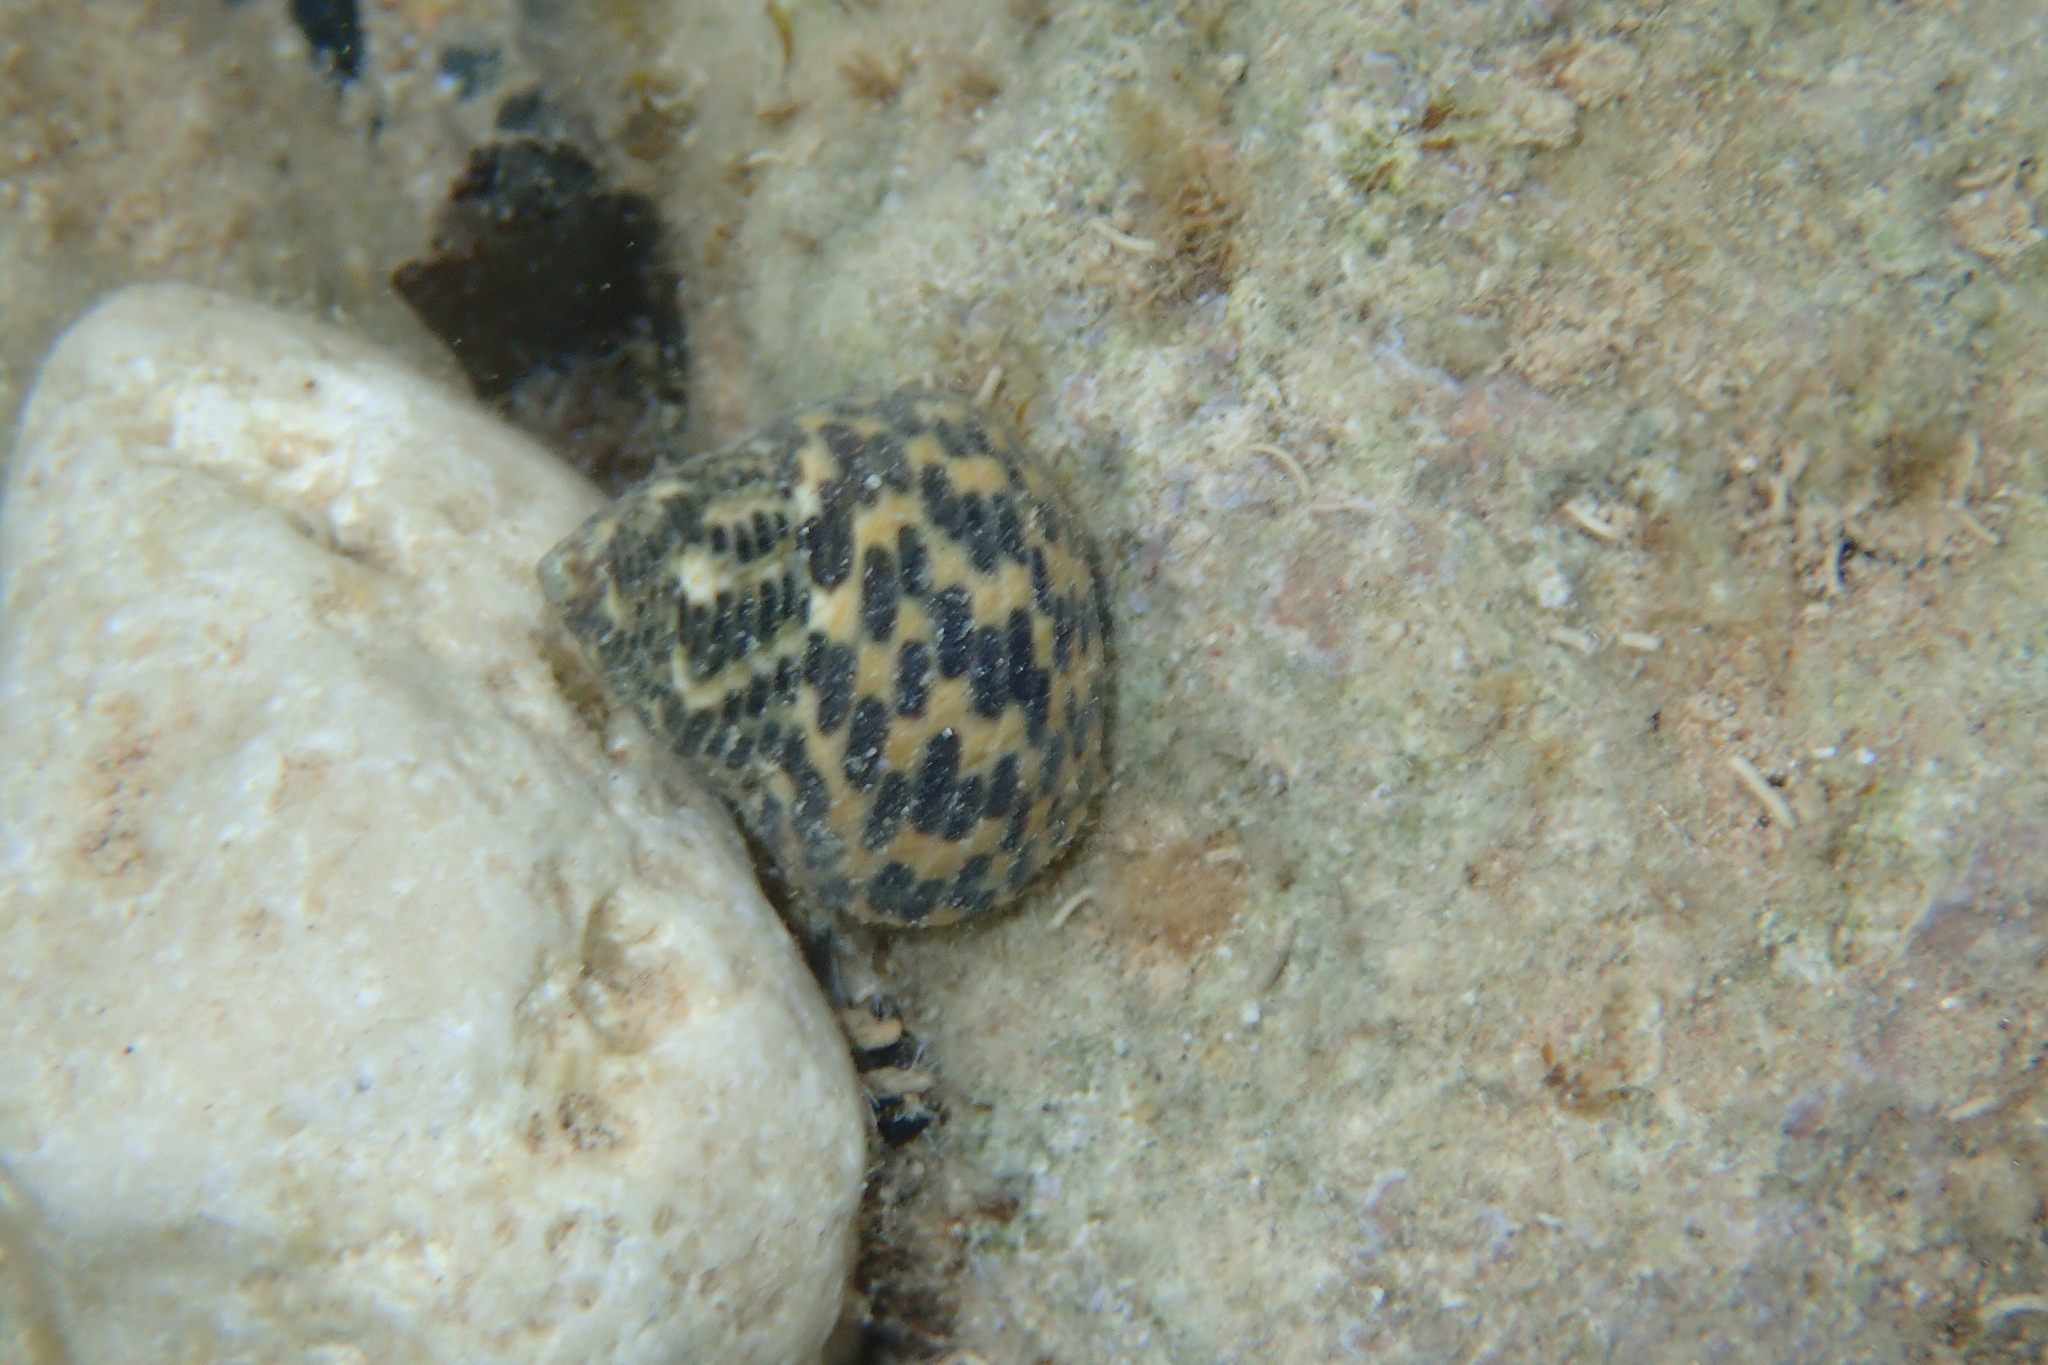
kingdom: Animalia
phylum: Mollusca
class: Gastropoda
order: Trochida
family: Trochidae
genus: Phorcus
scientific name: Phorcus turbinatus
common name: Turbinate monodont
